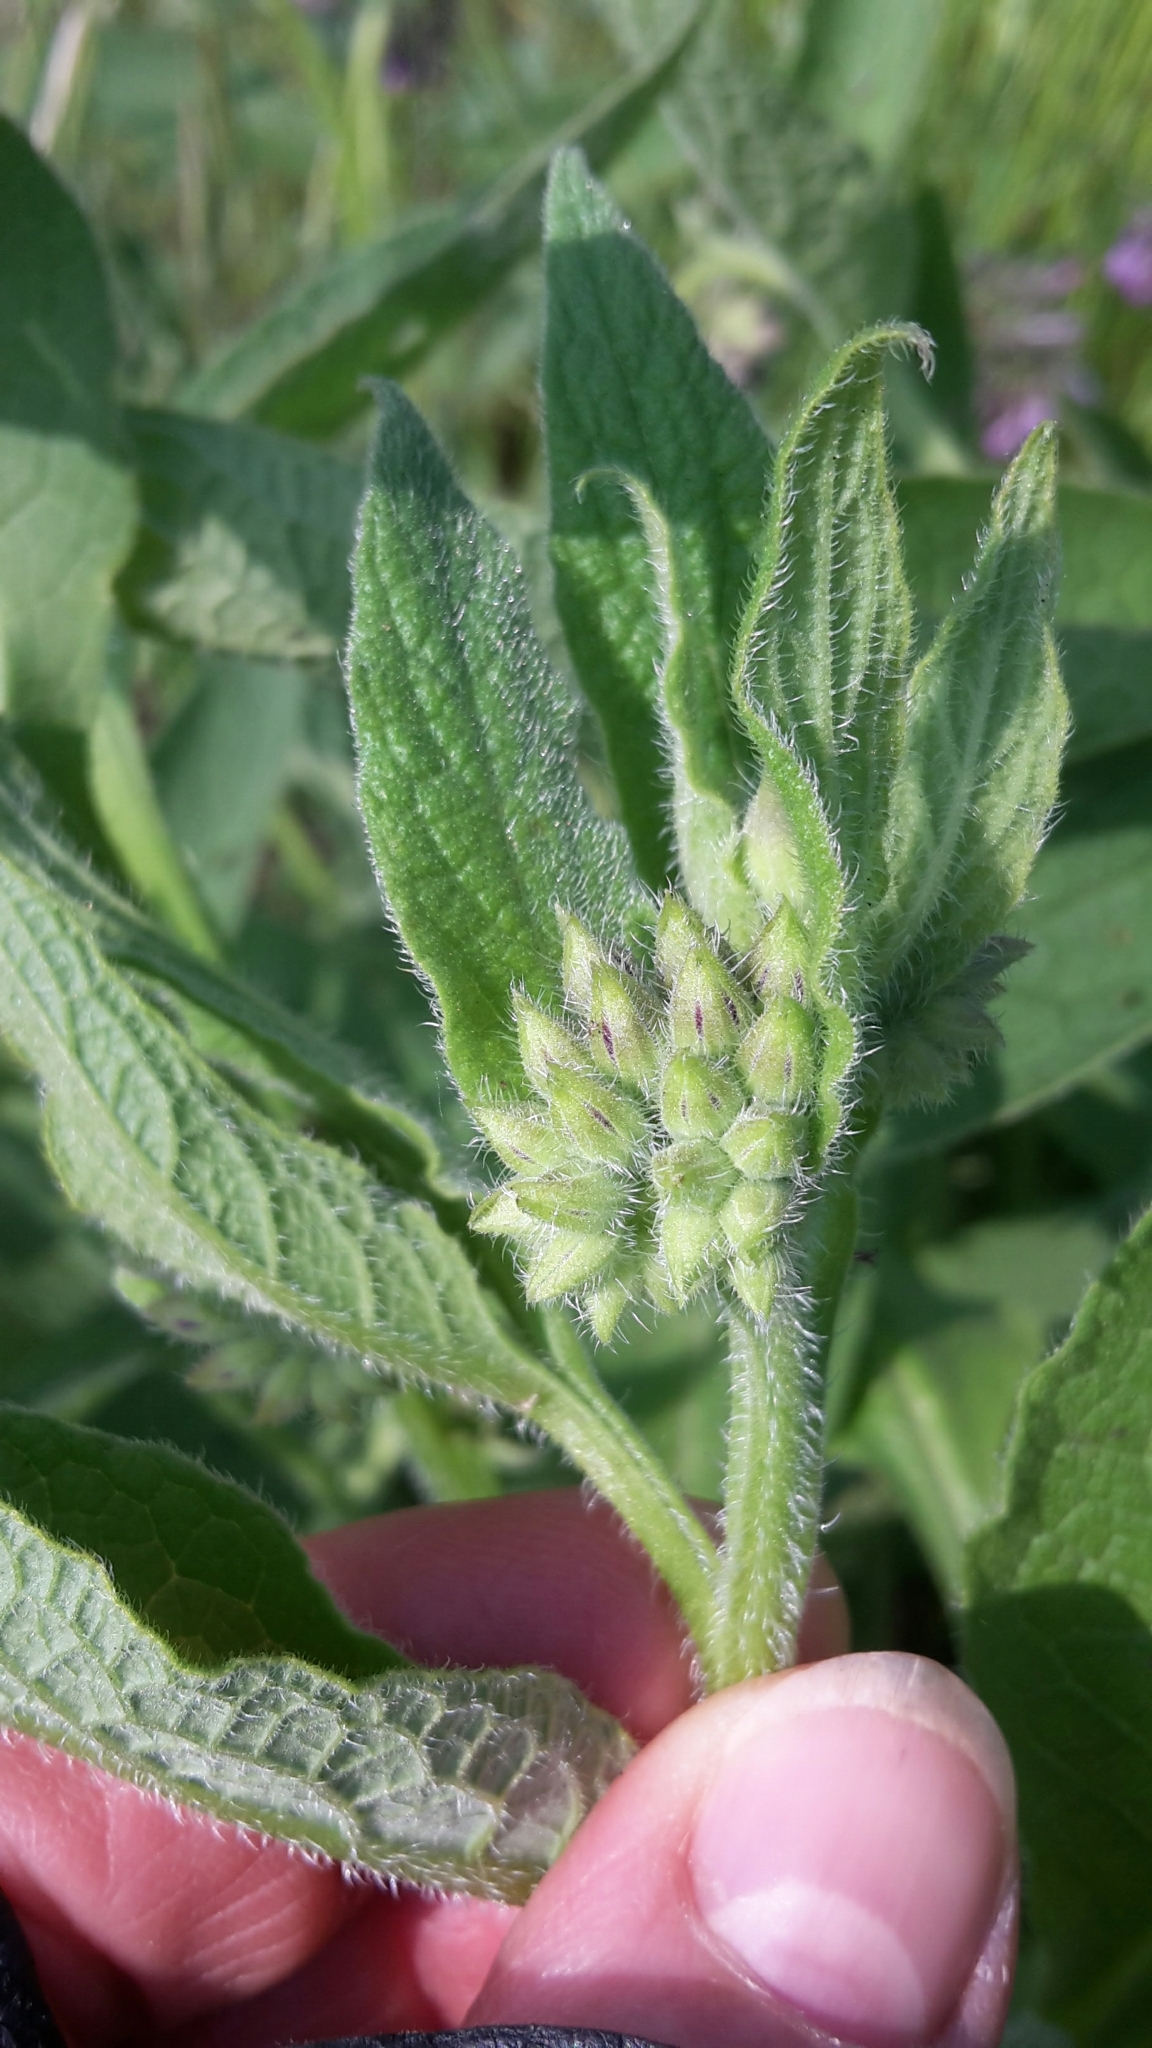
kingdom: Plantae
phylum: Tracheophyta
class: Magnoliopsida
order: Boraginales
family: Boraginaceae
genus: Symphytum
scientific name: Symphytum officinale
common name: Common comfrey
